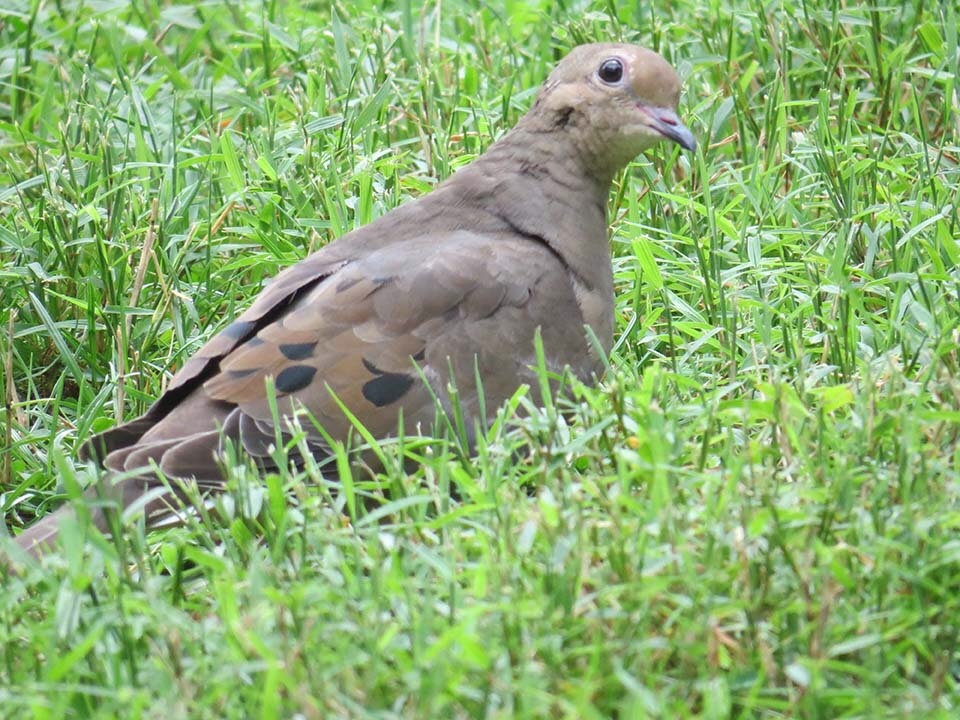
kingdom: Animalia
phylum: Chordata
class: Aves
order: Columbiformes
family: Columbidae
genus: Zenaida
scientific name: Zenaida macroura
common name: Mourning dove
